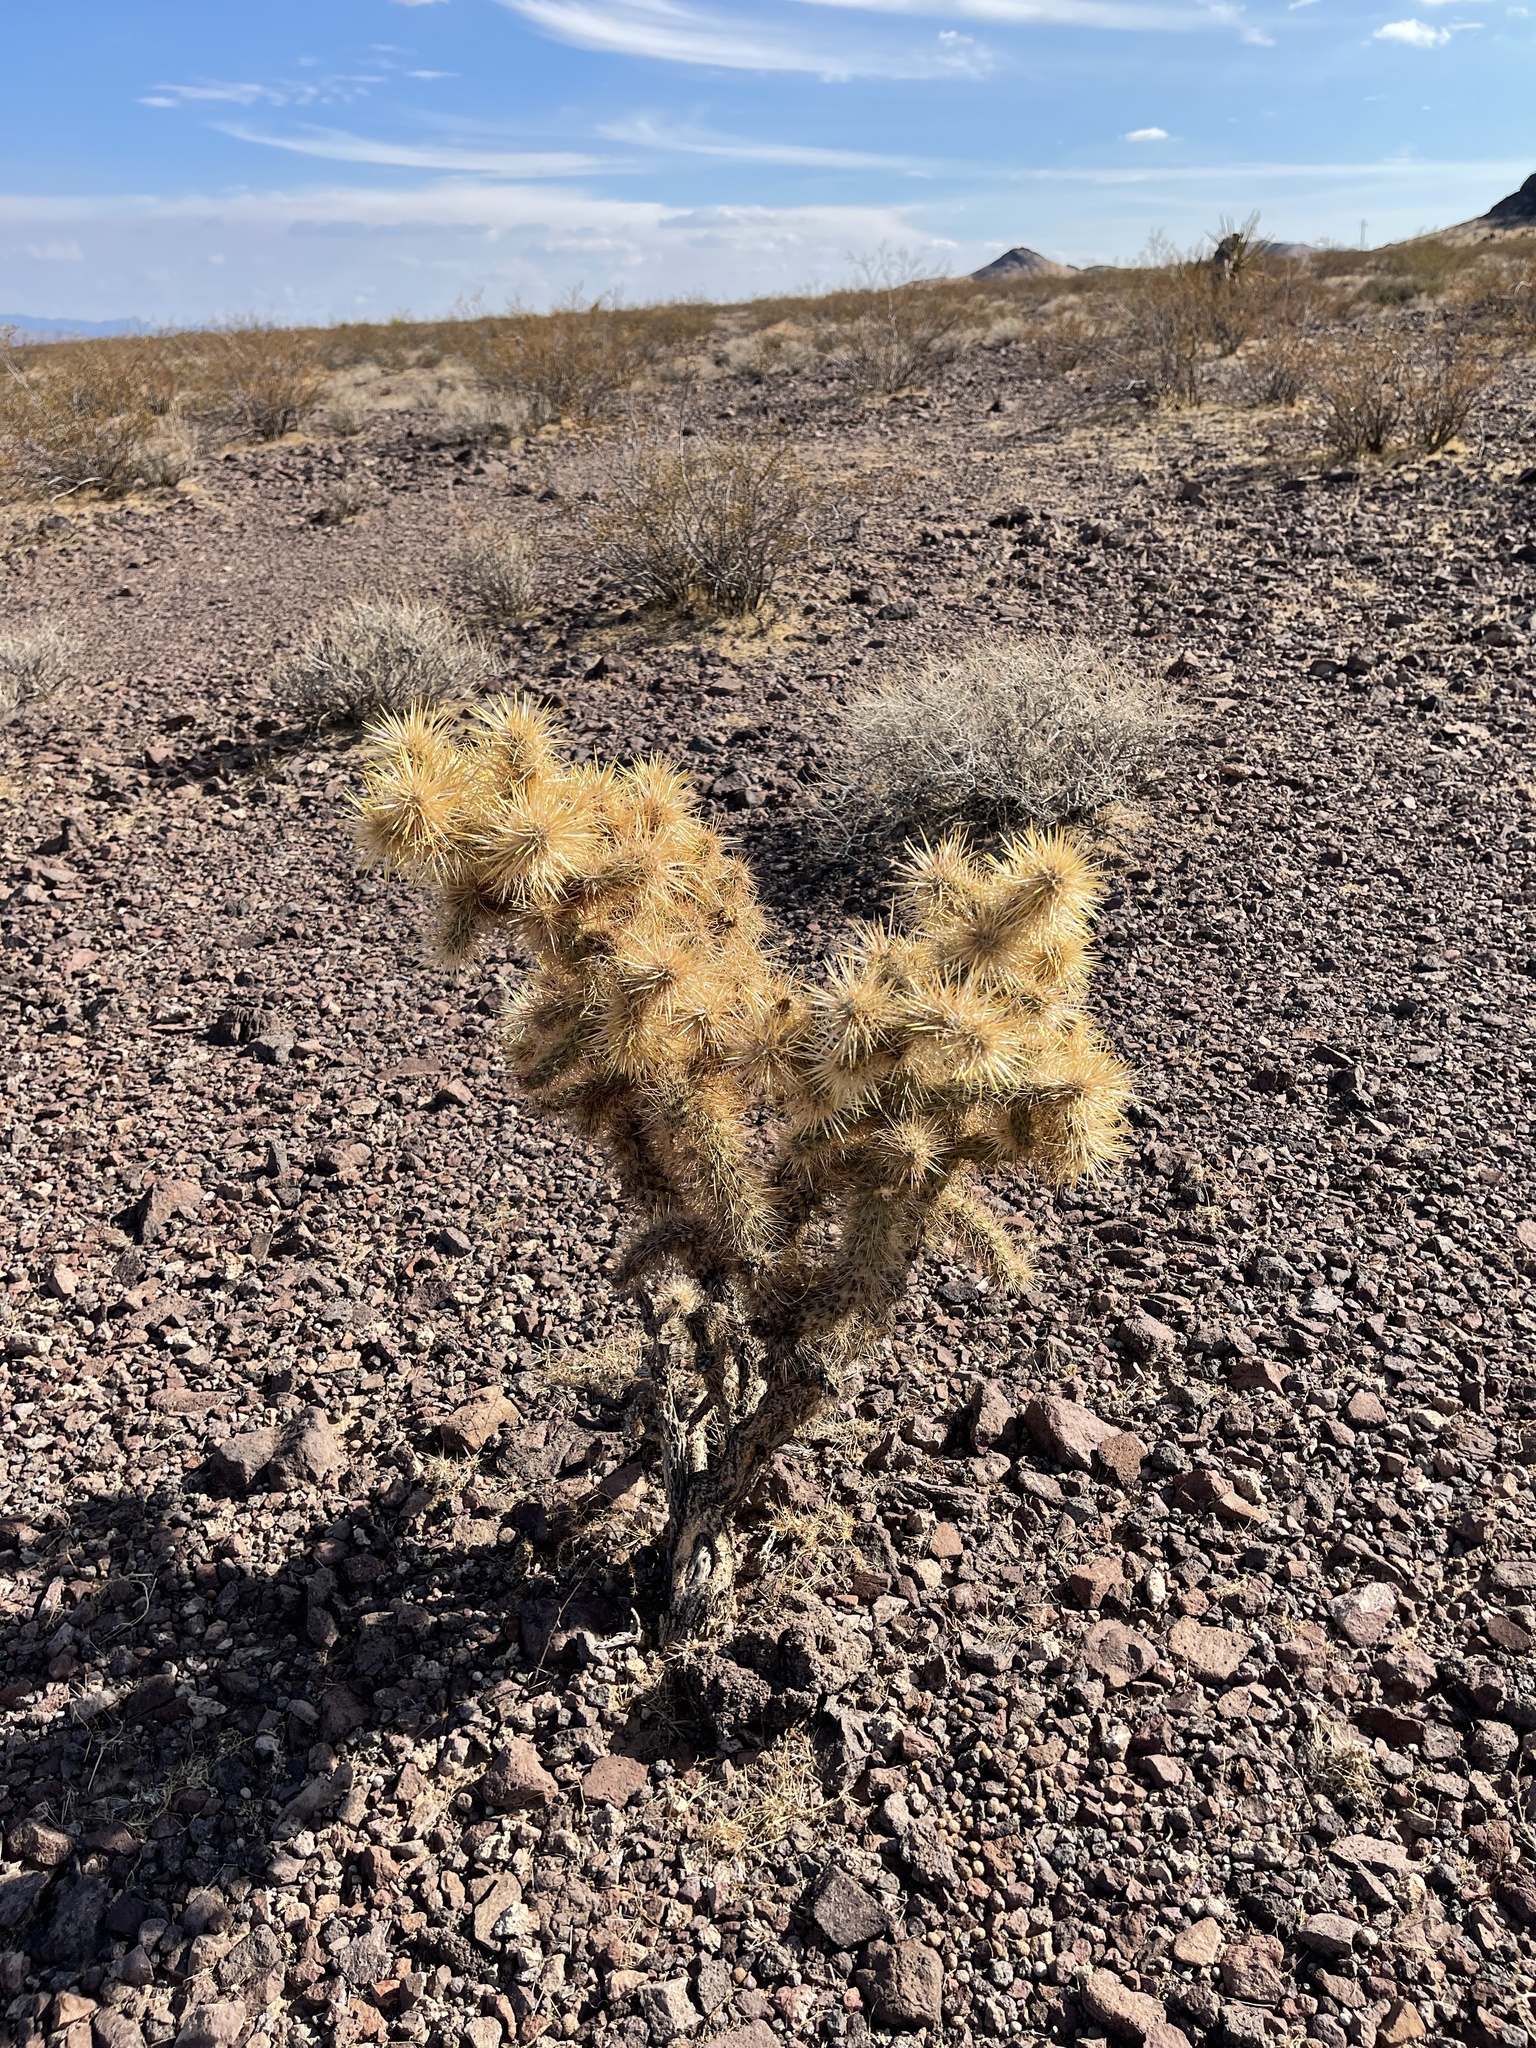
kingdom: Plantae
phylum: Tracheophyta
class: Magnoliopsida
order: Caryophyllales
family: Cactaceae
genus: Cylindropuntia
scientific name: Cylindropuntia echinocarpa
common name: Ground cholla
